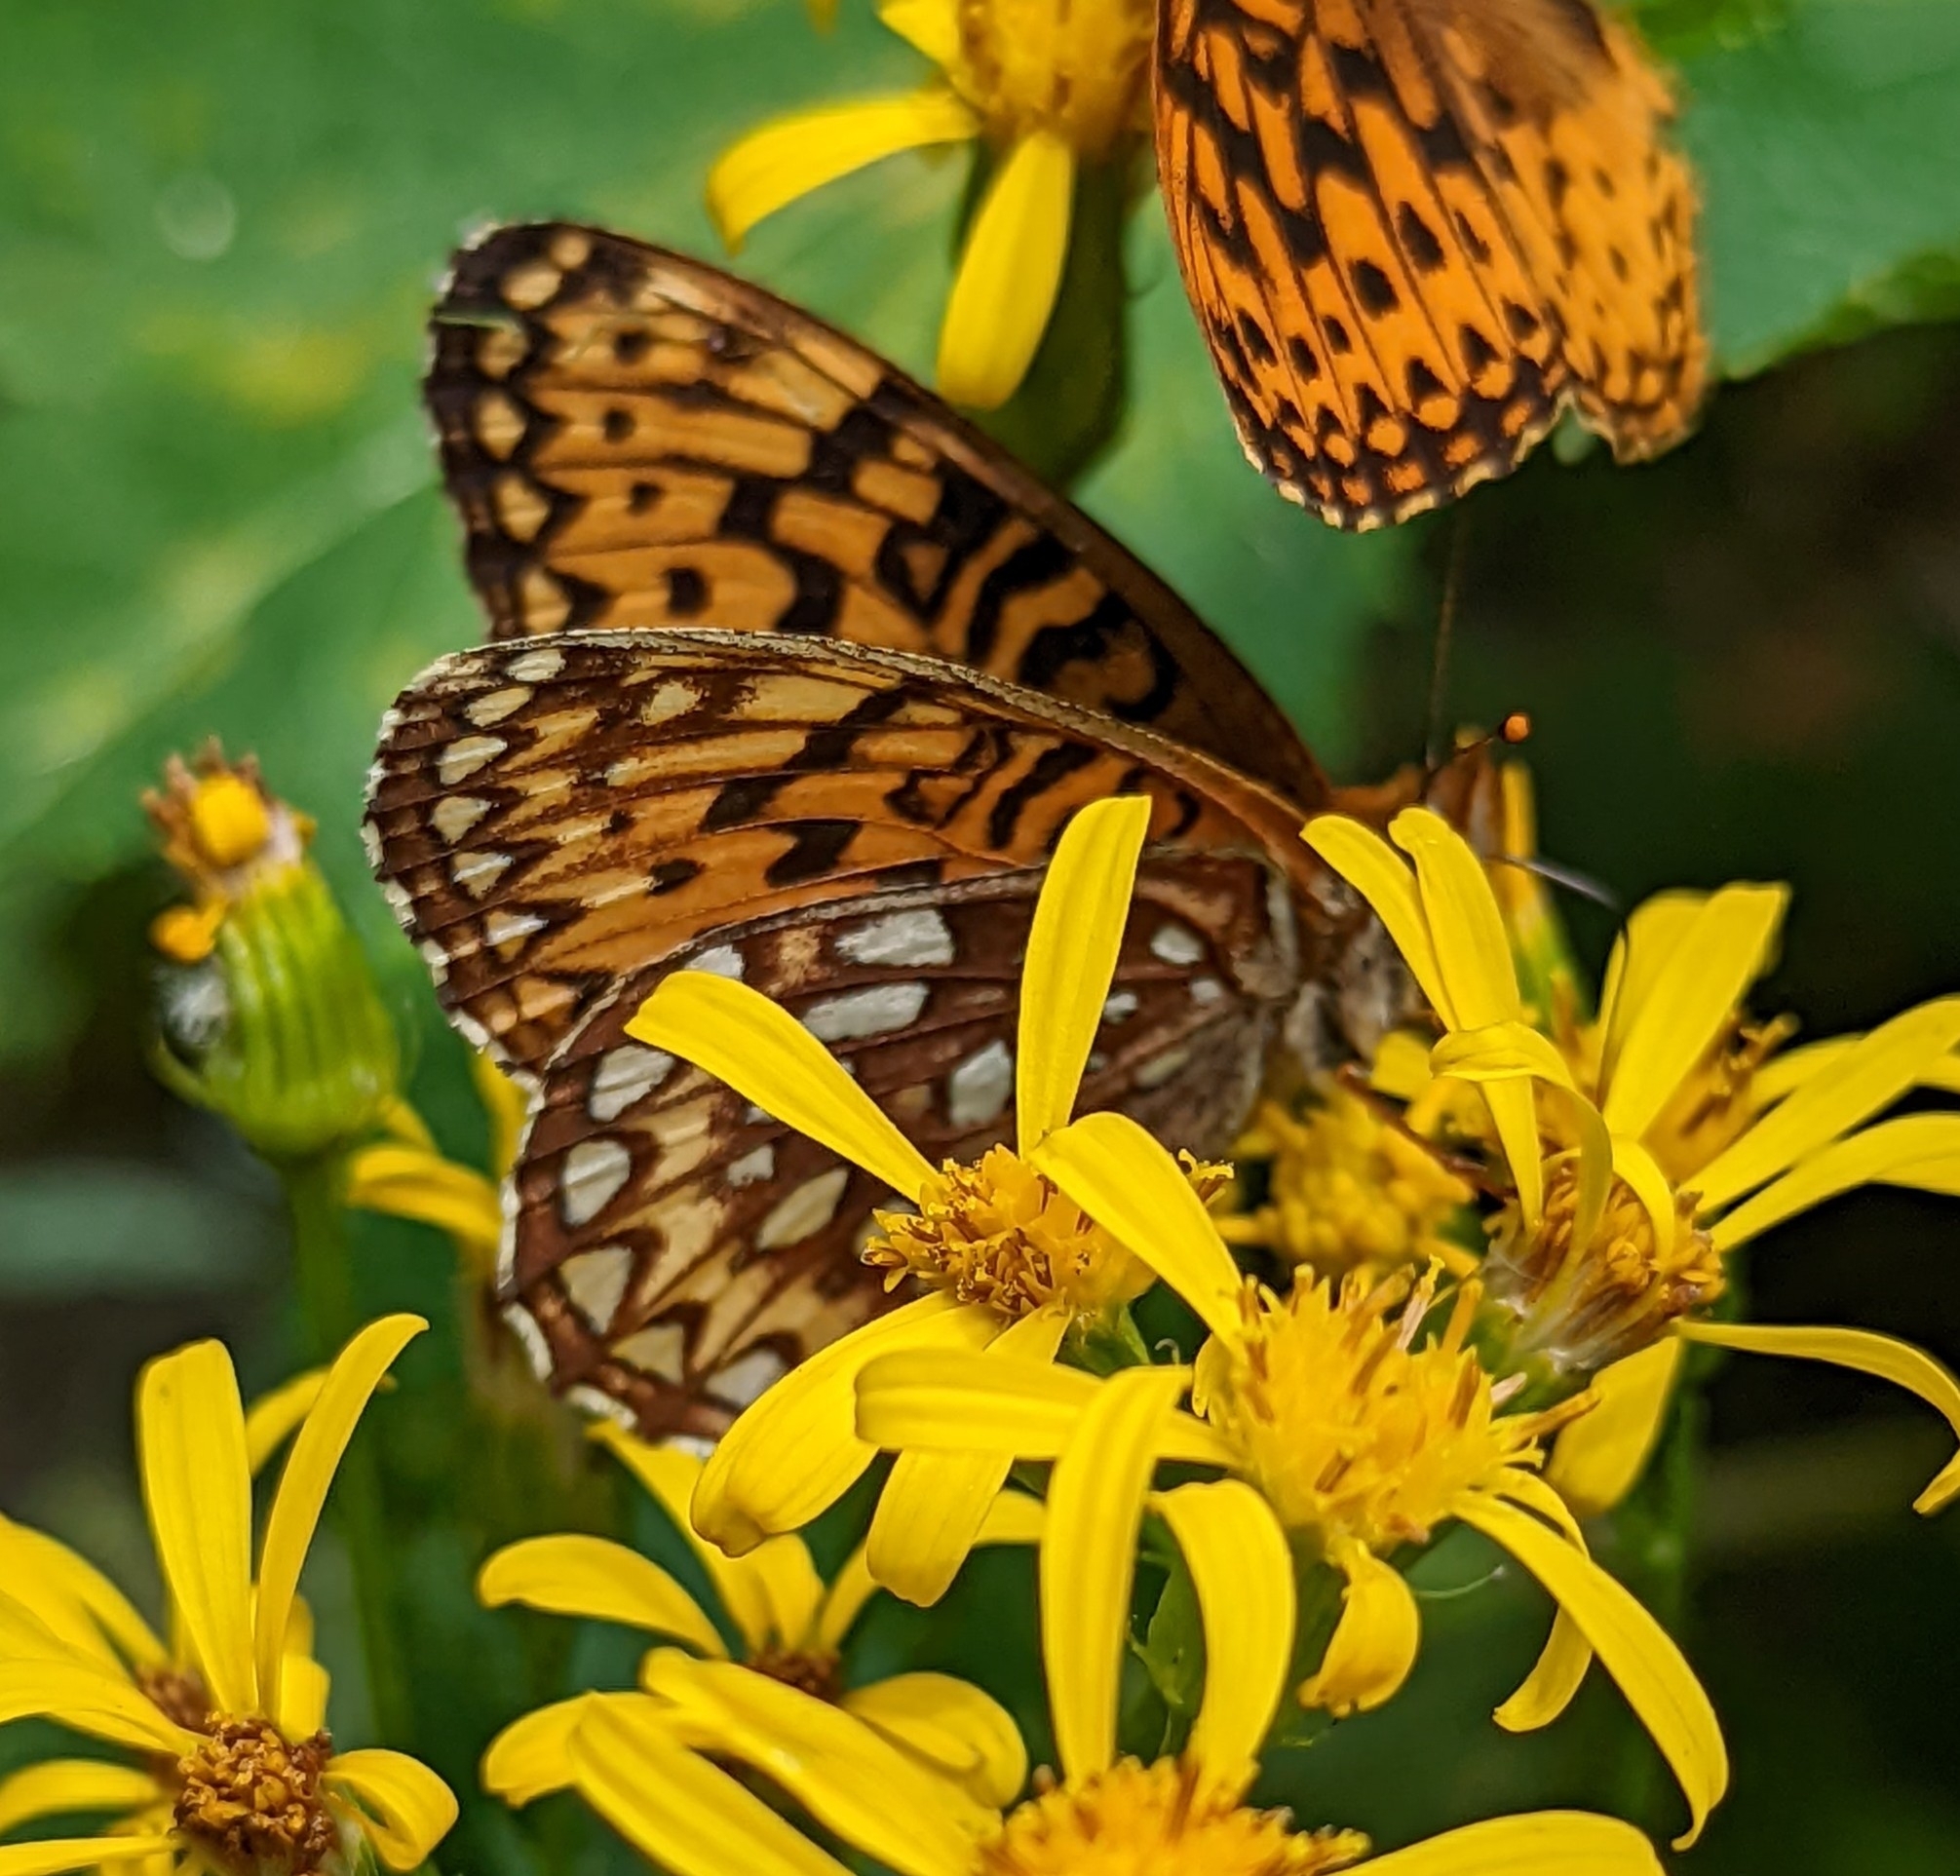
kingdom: Animalia
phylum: Arthropoda
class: Insecta
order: Lepidoptera
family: Nymphalidae
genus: Speyeria
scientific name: Speyeria atlantis
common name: Atlantis fritillary
